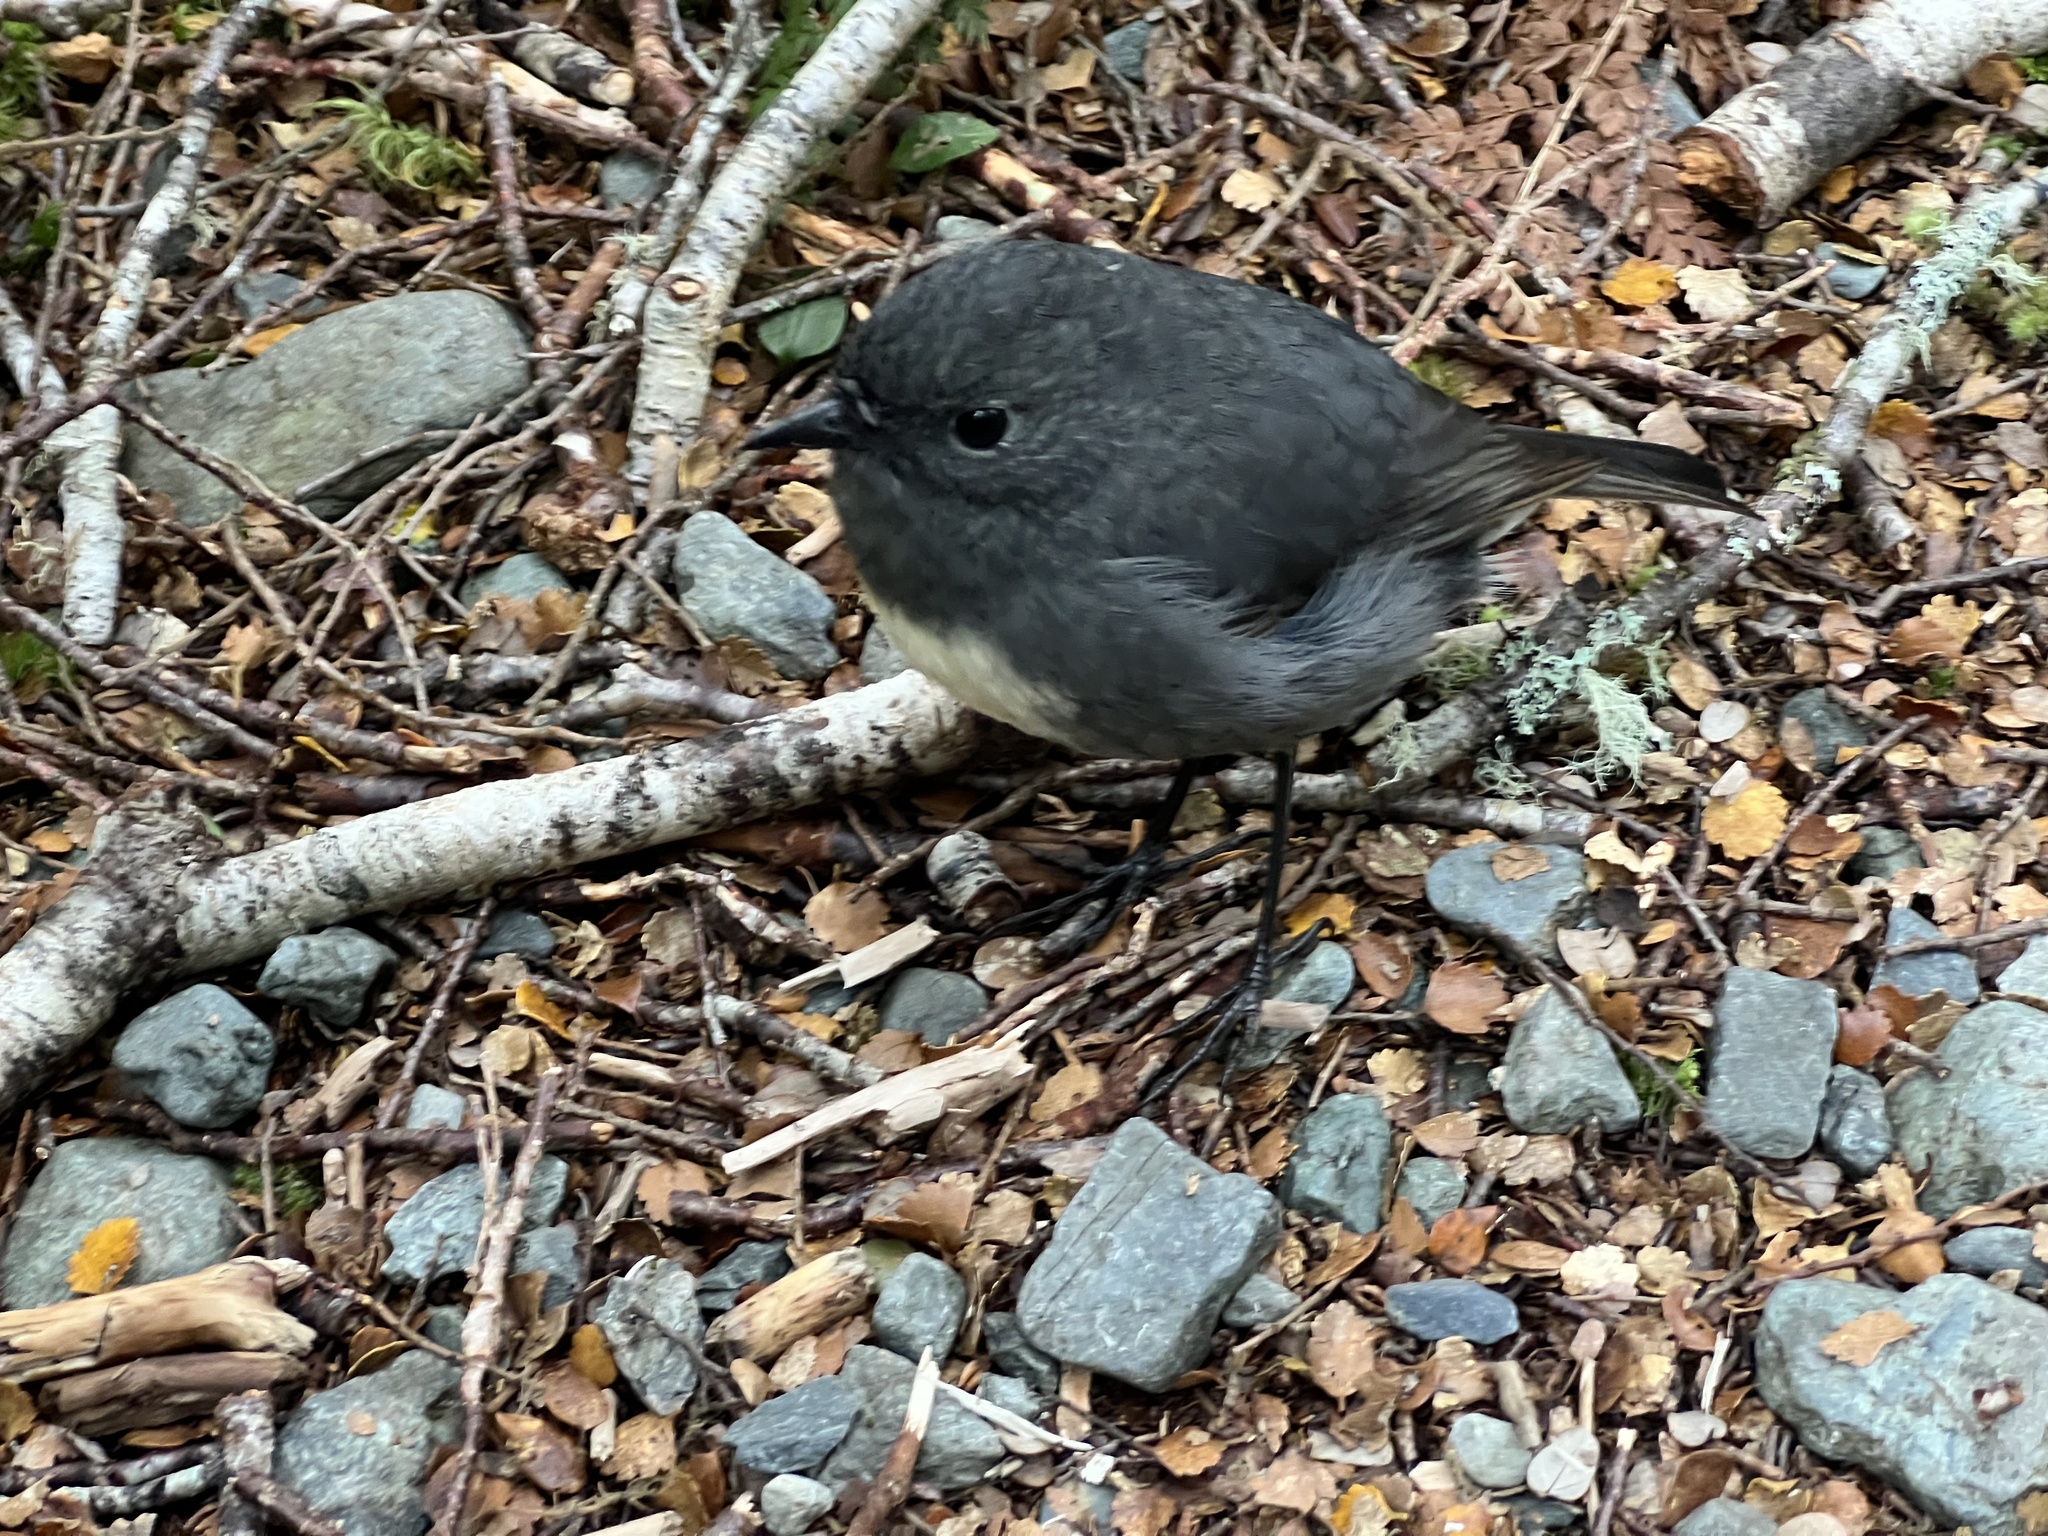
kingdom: Animalia
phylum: Chordata
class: Aves
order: Passeriformes
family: Petroicidae
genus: Petroica
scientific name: Petroica australis
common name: New zealand robin
